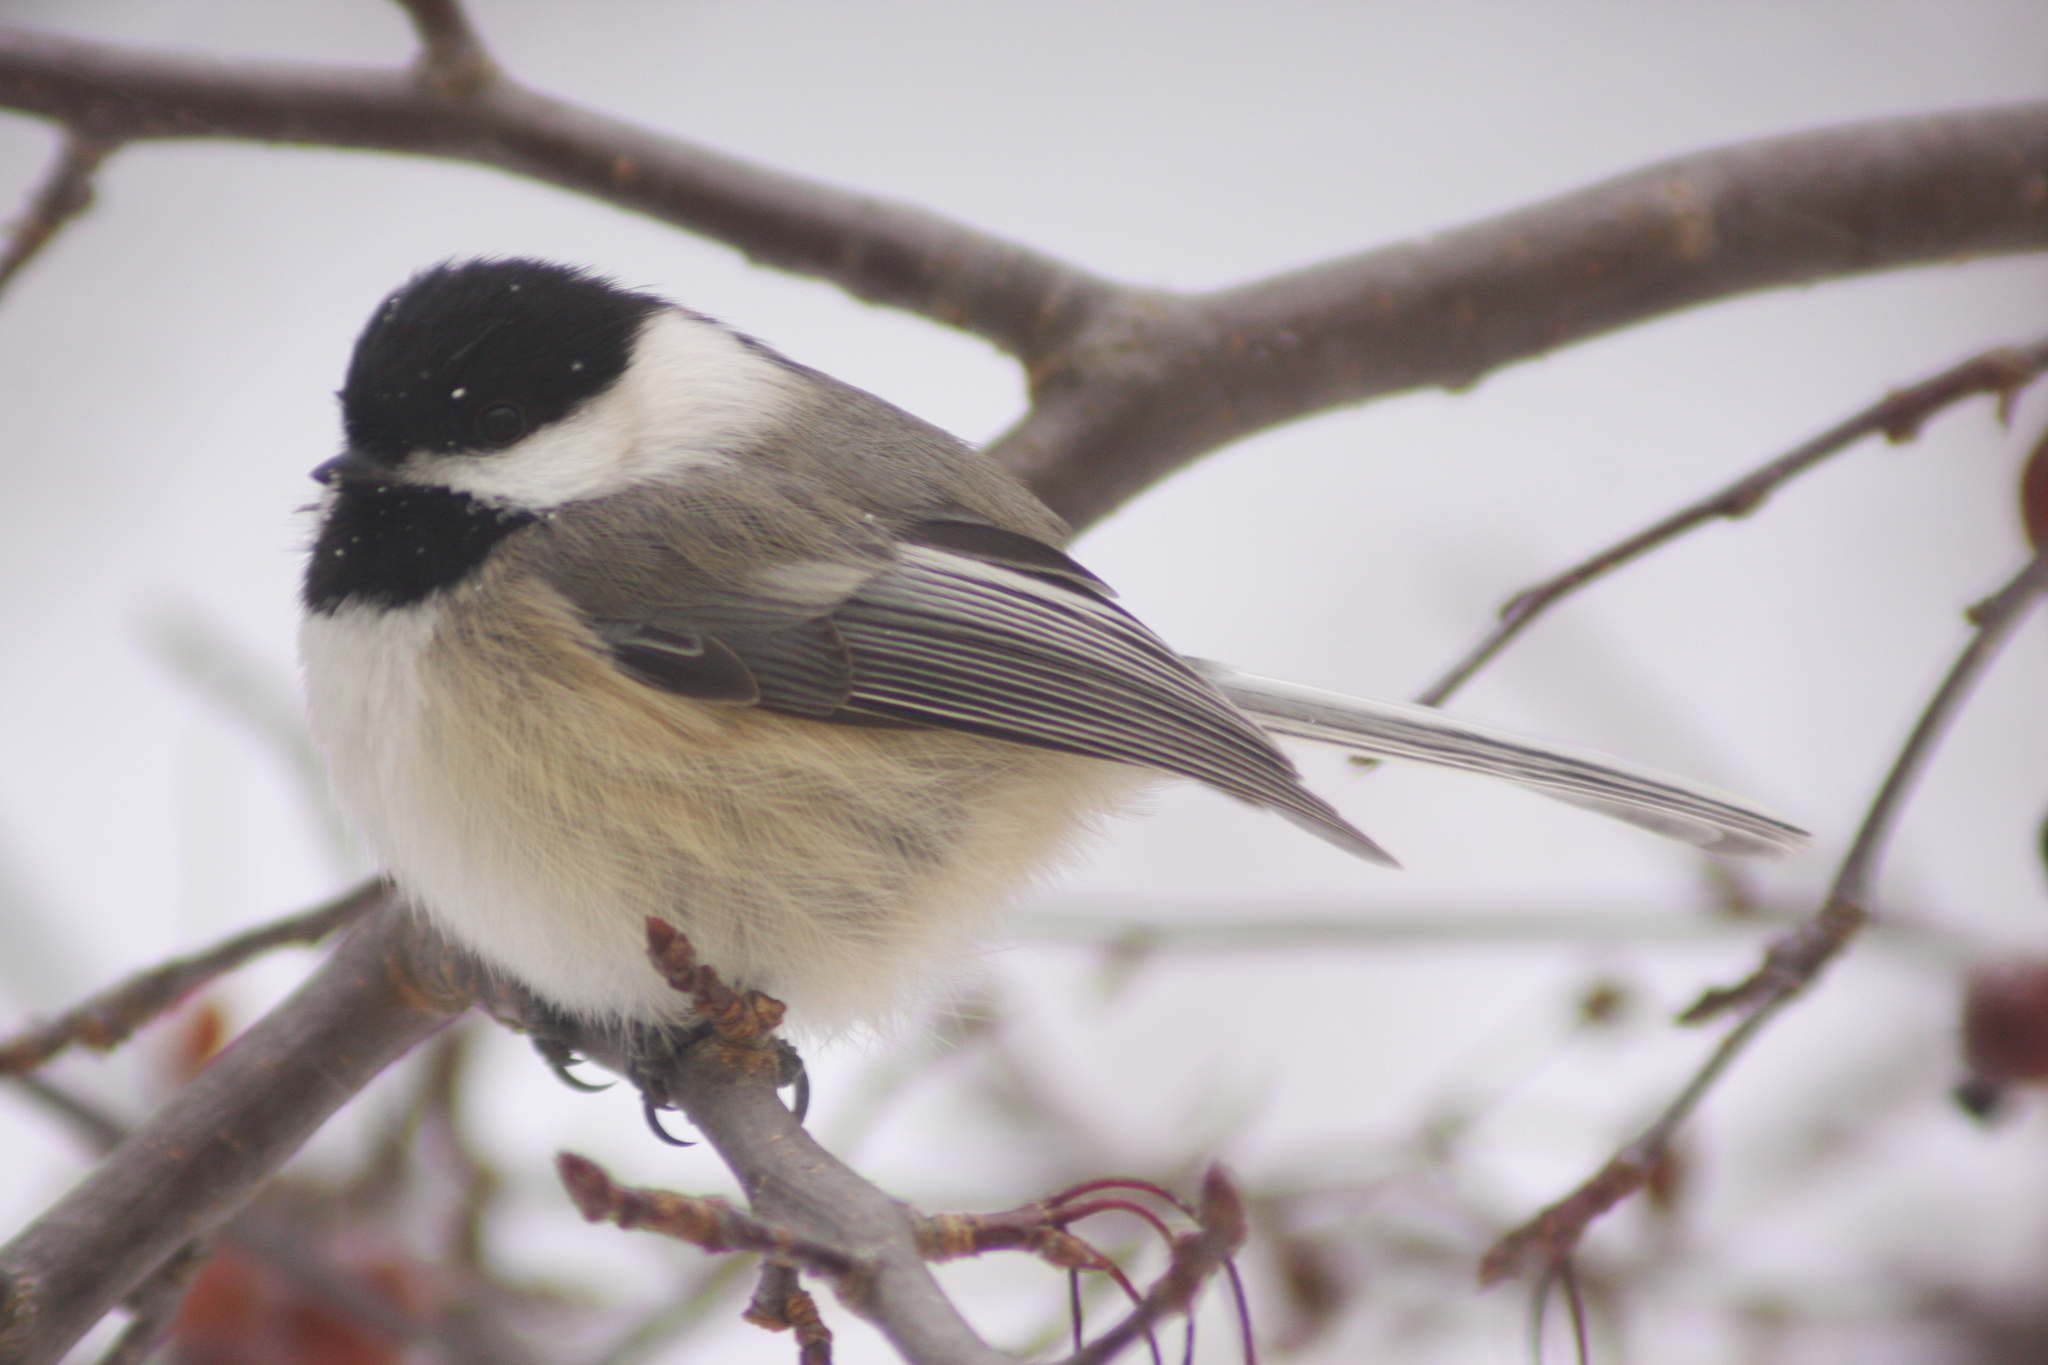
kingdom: Animalia
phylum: Chordata
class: Aves
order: Passeriformes
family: Paridae
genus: Poecile
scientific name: Poecile atricapillus
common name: Black-capped chickadee
